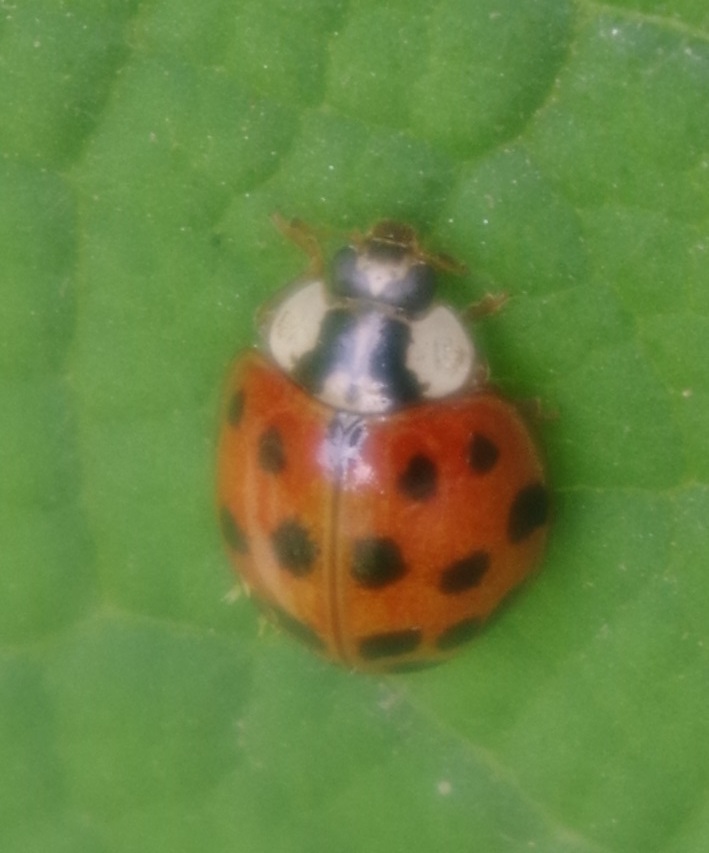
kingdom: Animalia
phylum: Arthropoda
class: Insecta
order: Coleoptera
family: Coccinellidae
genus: Harmonia
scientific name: Harmonia axyridis
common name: Harlequin ladybird
